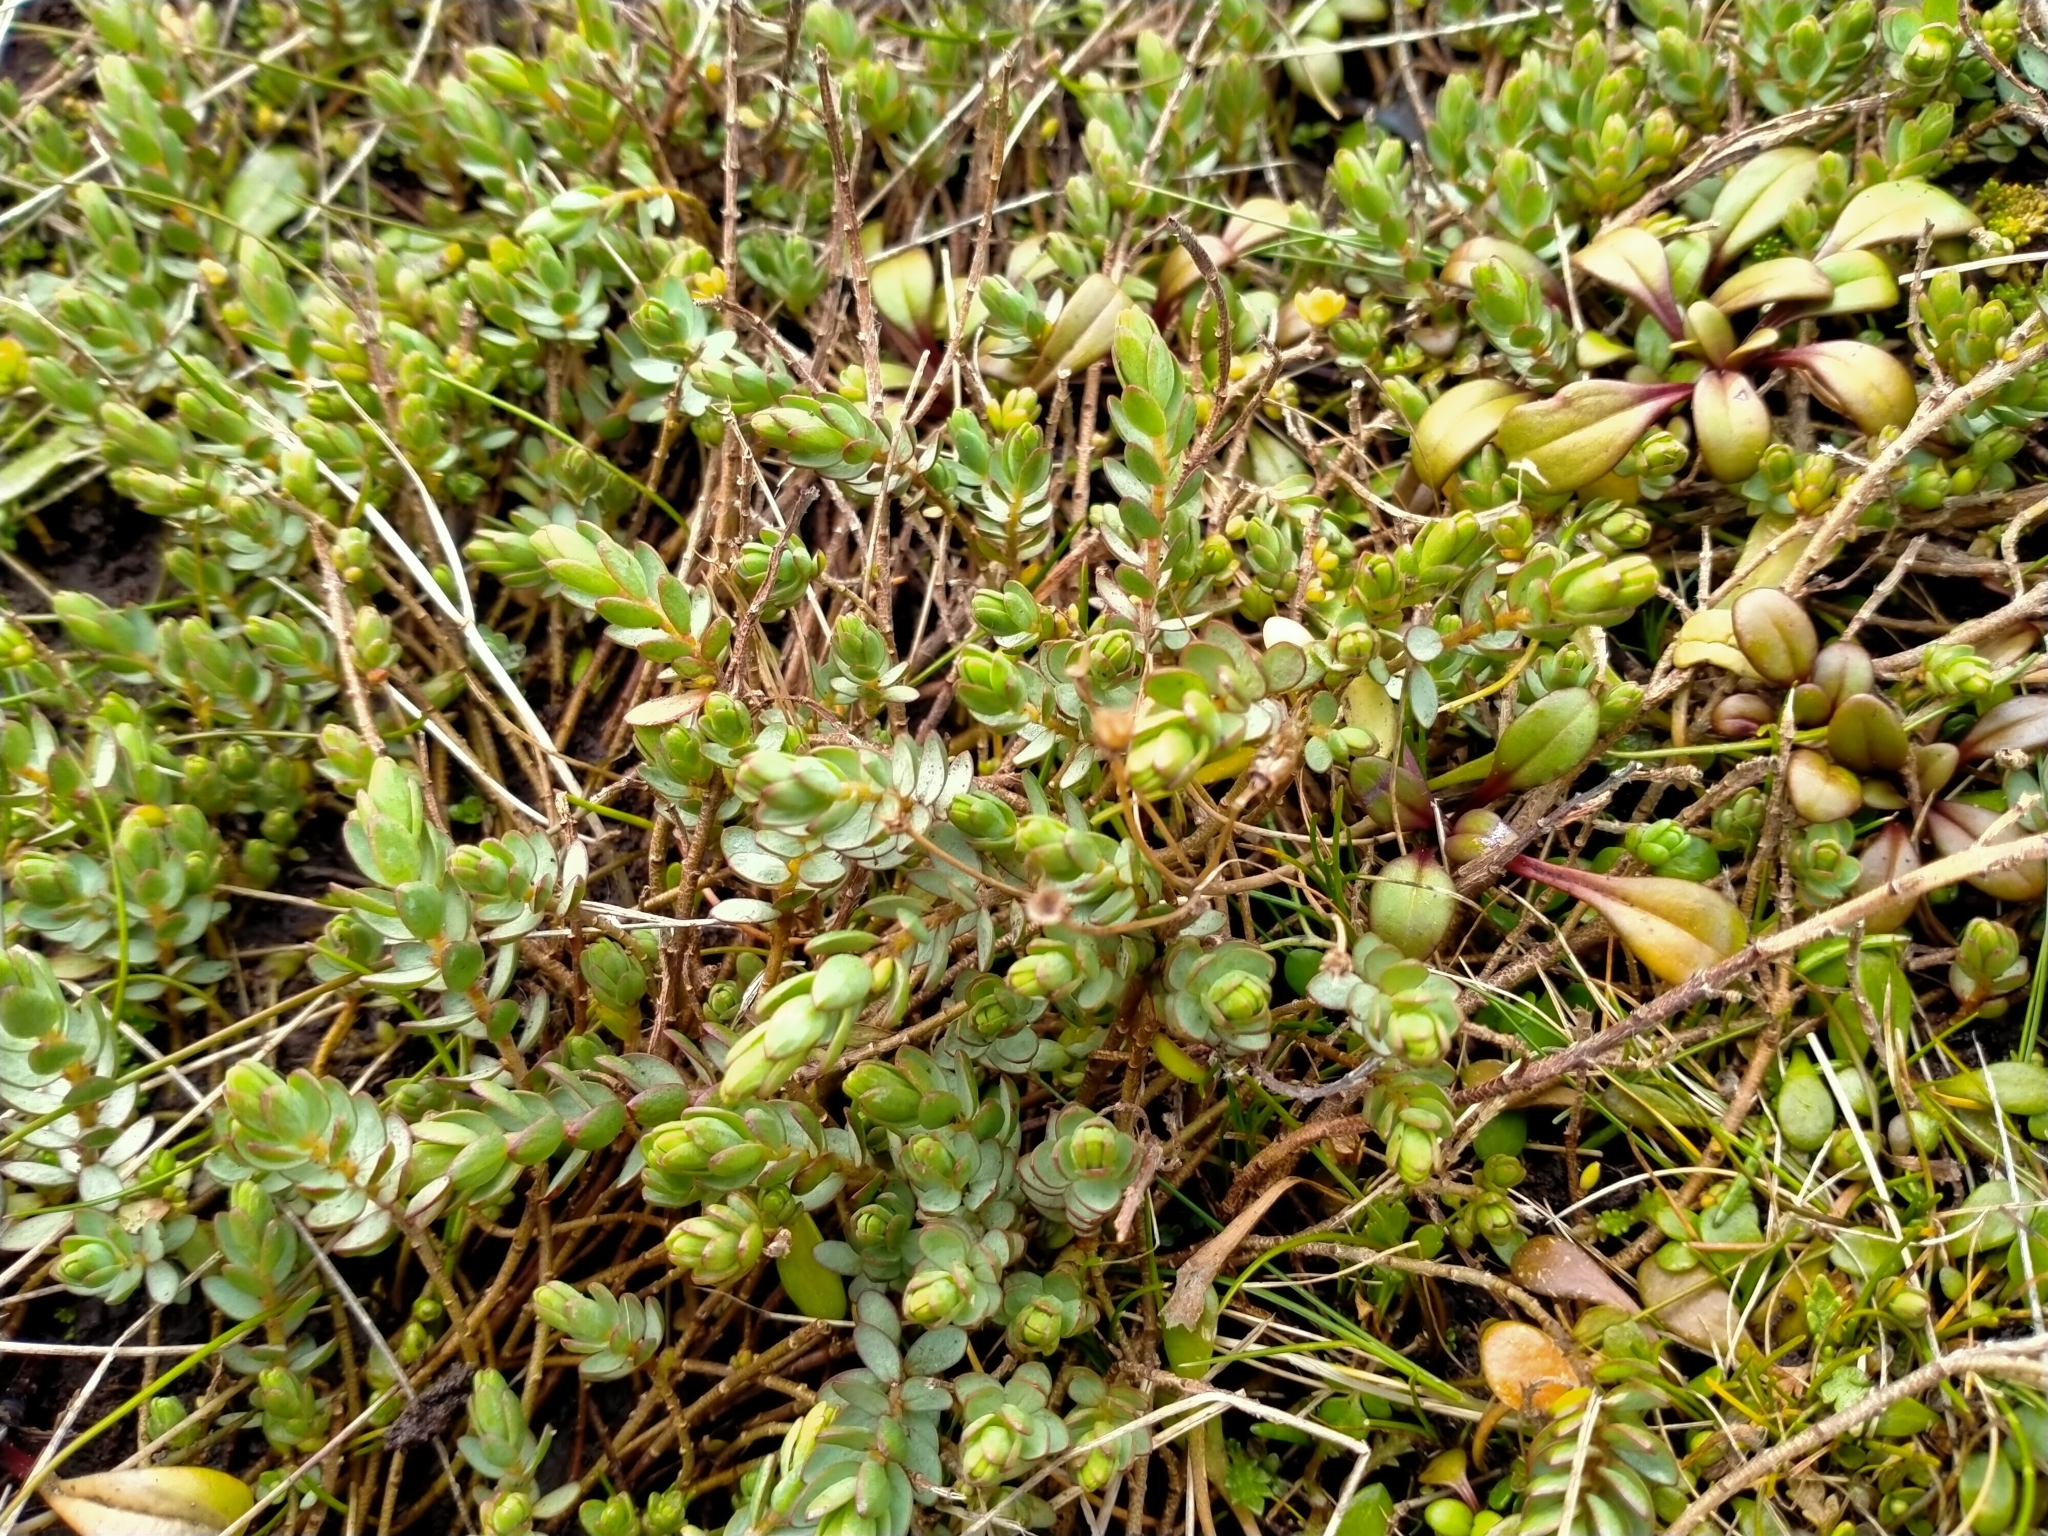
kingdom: Plantae
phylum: Tracheophyta
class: Magnoliopsida
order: Malvales
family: Thymelaeaceae
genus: Pimelea
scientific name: Pimelea prostrata
